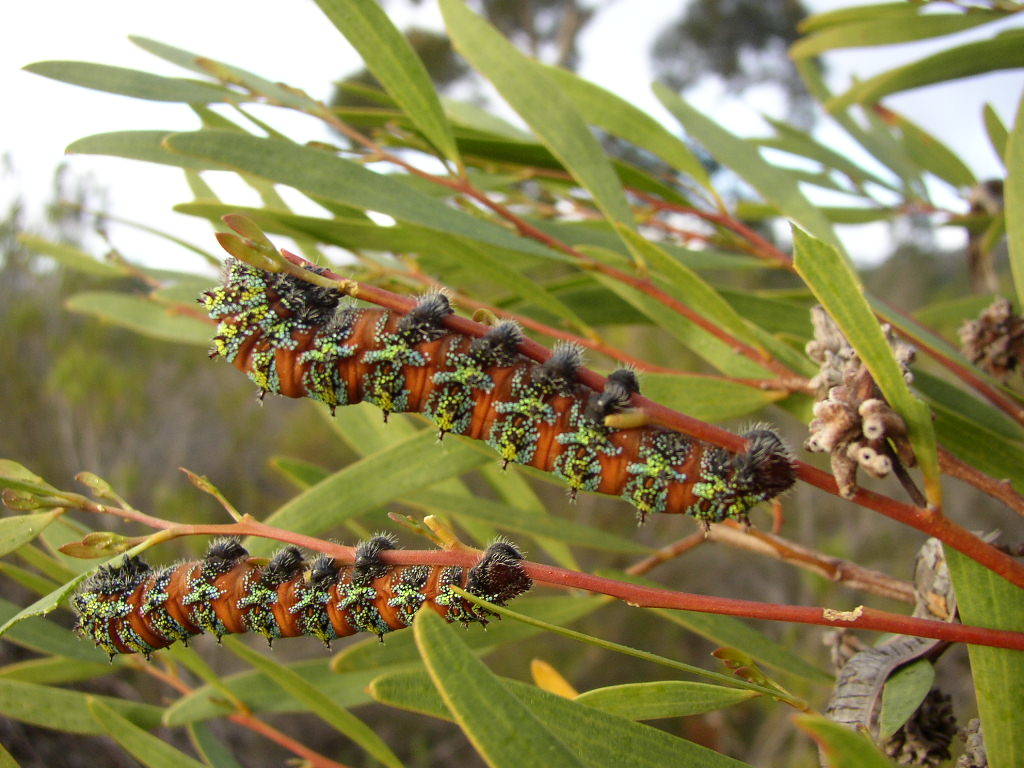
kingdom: Animalia
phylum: Arthropoda
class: Insecta
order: Lepidoptera
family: Saturniidae
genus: Nudaurelia
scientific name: Nudaurelia cytherea
